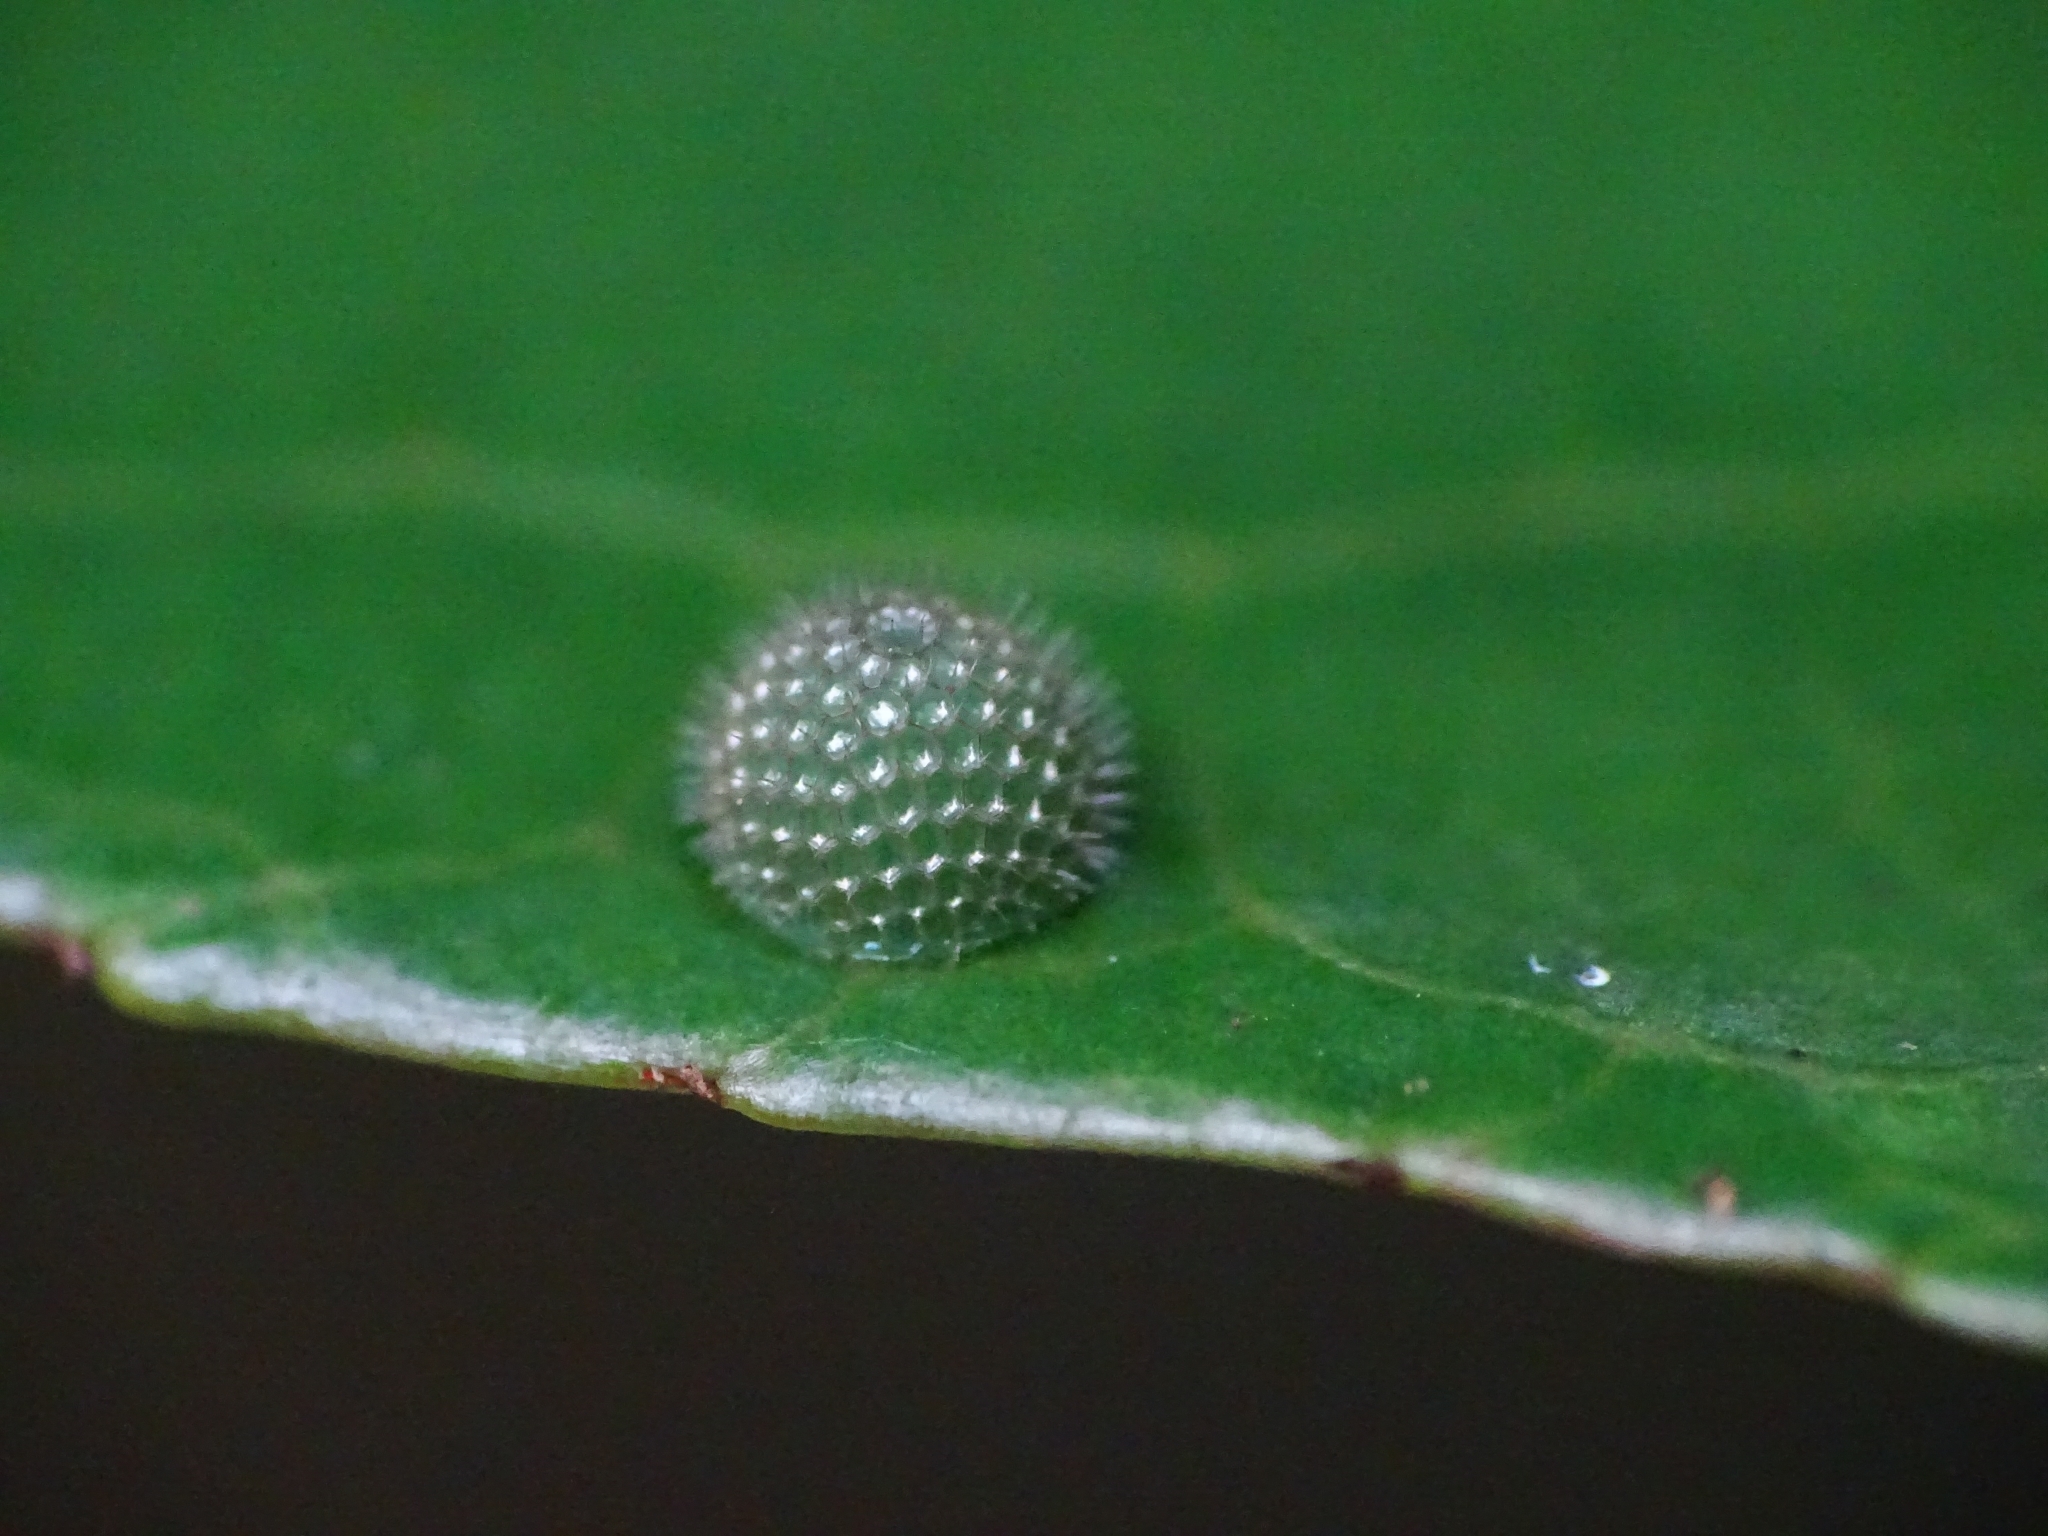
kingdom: Animalia
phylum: Arthropoda
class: Insecta
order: Lepidoptera
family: Nymphalidae
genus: Tanaecia
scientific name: Tanaecia lepidea
